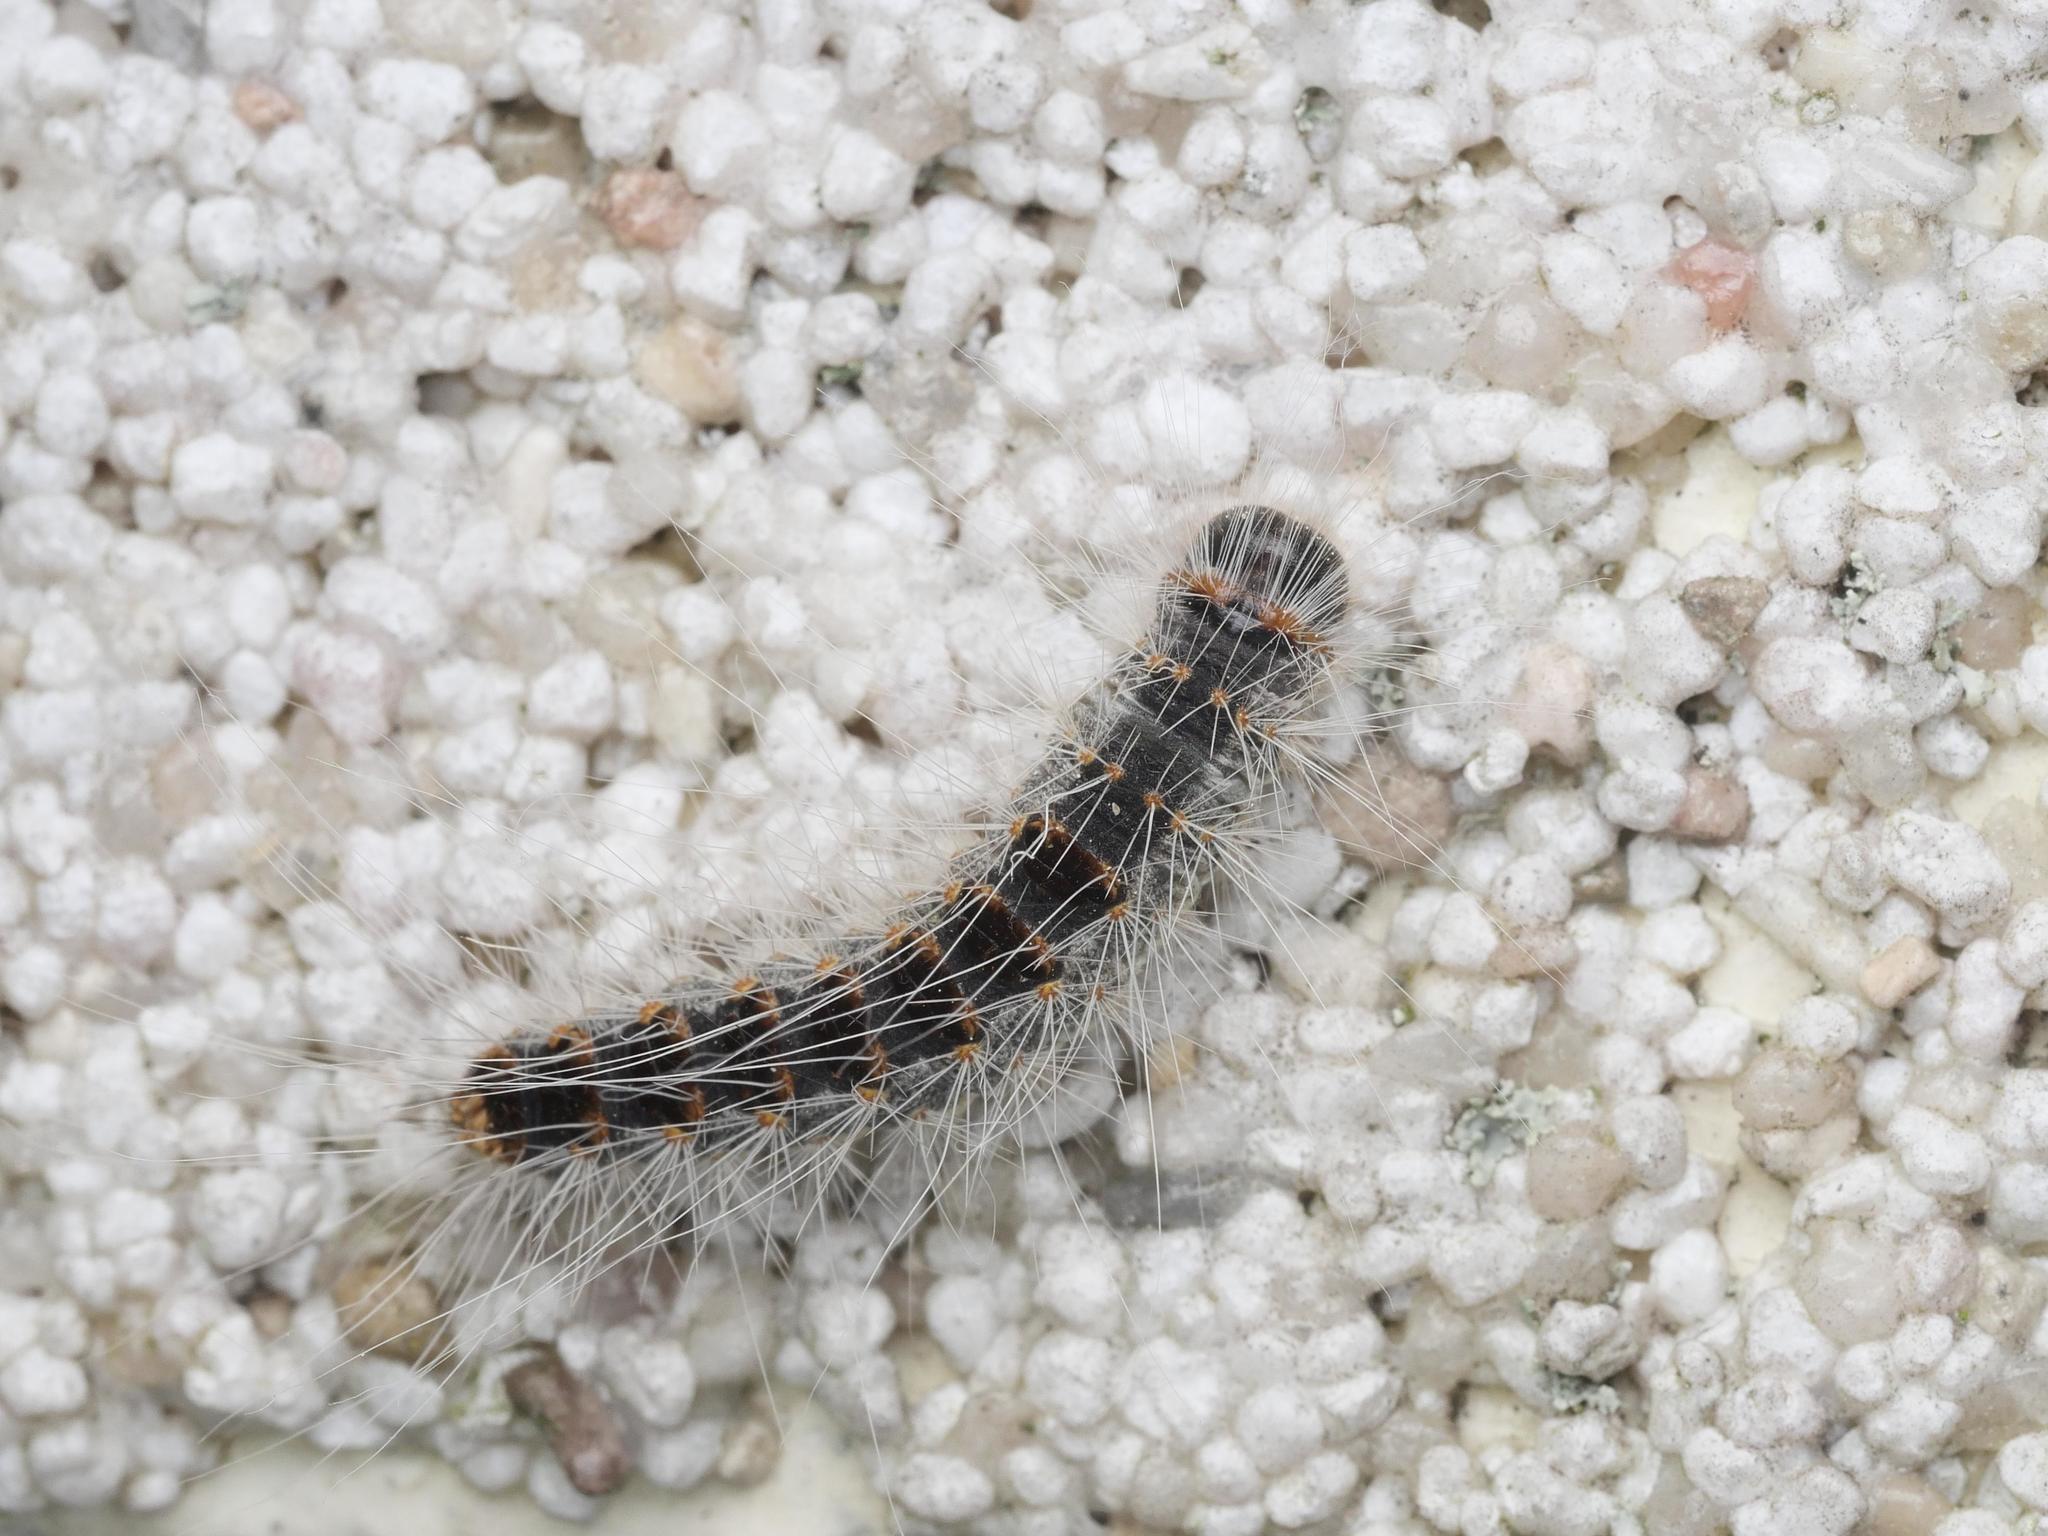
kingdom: Animalia
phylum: Arthropoda
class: Insecta
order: Lepidoptera
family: Notodontidae
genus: Thaumetopoea
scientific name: Thaumetopoea processionea
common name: Oak processionea
